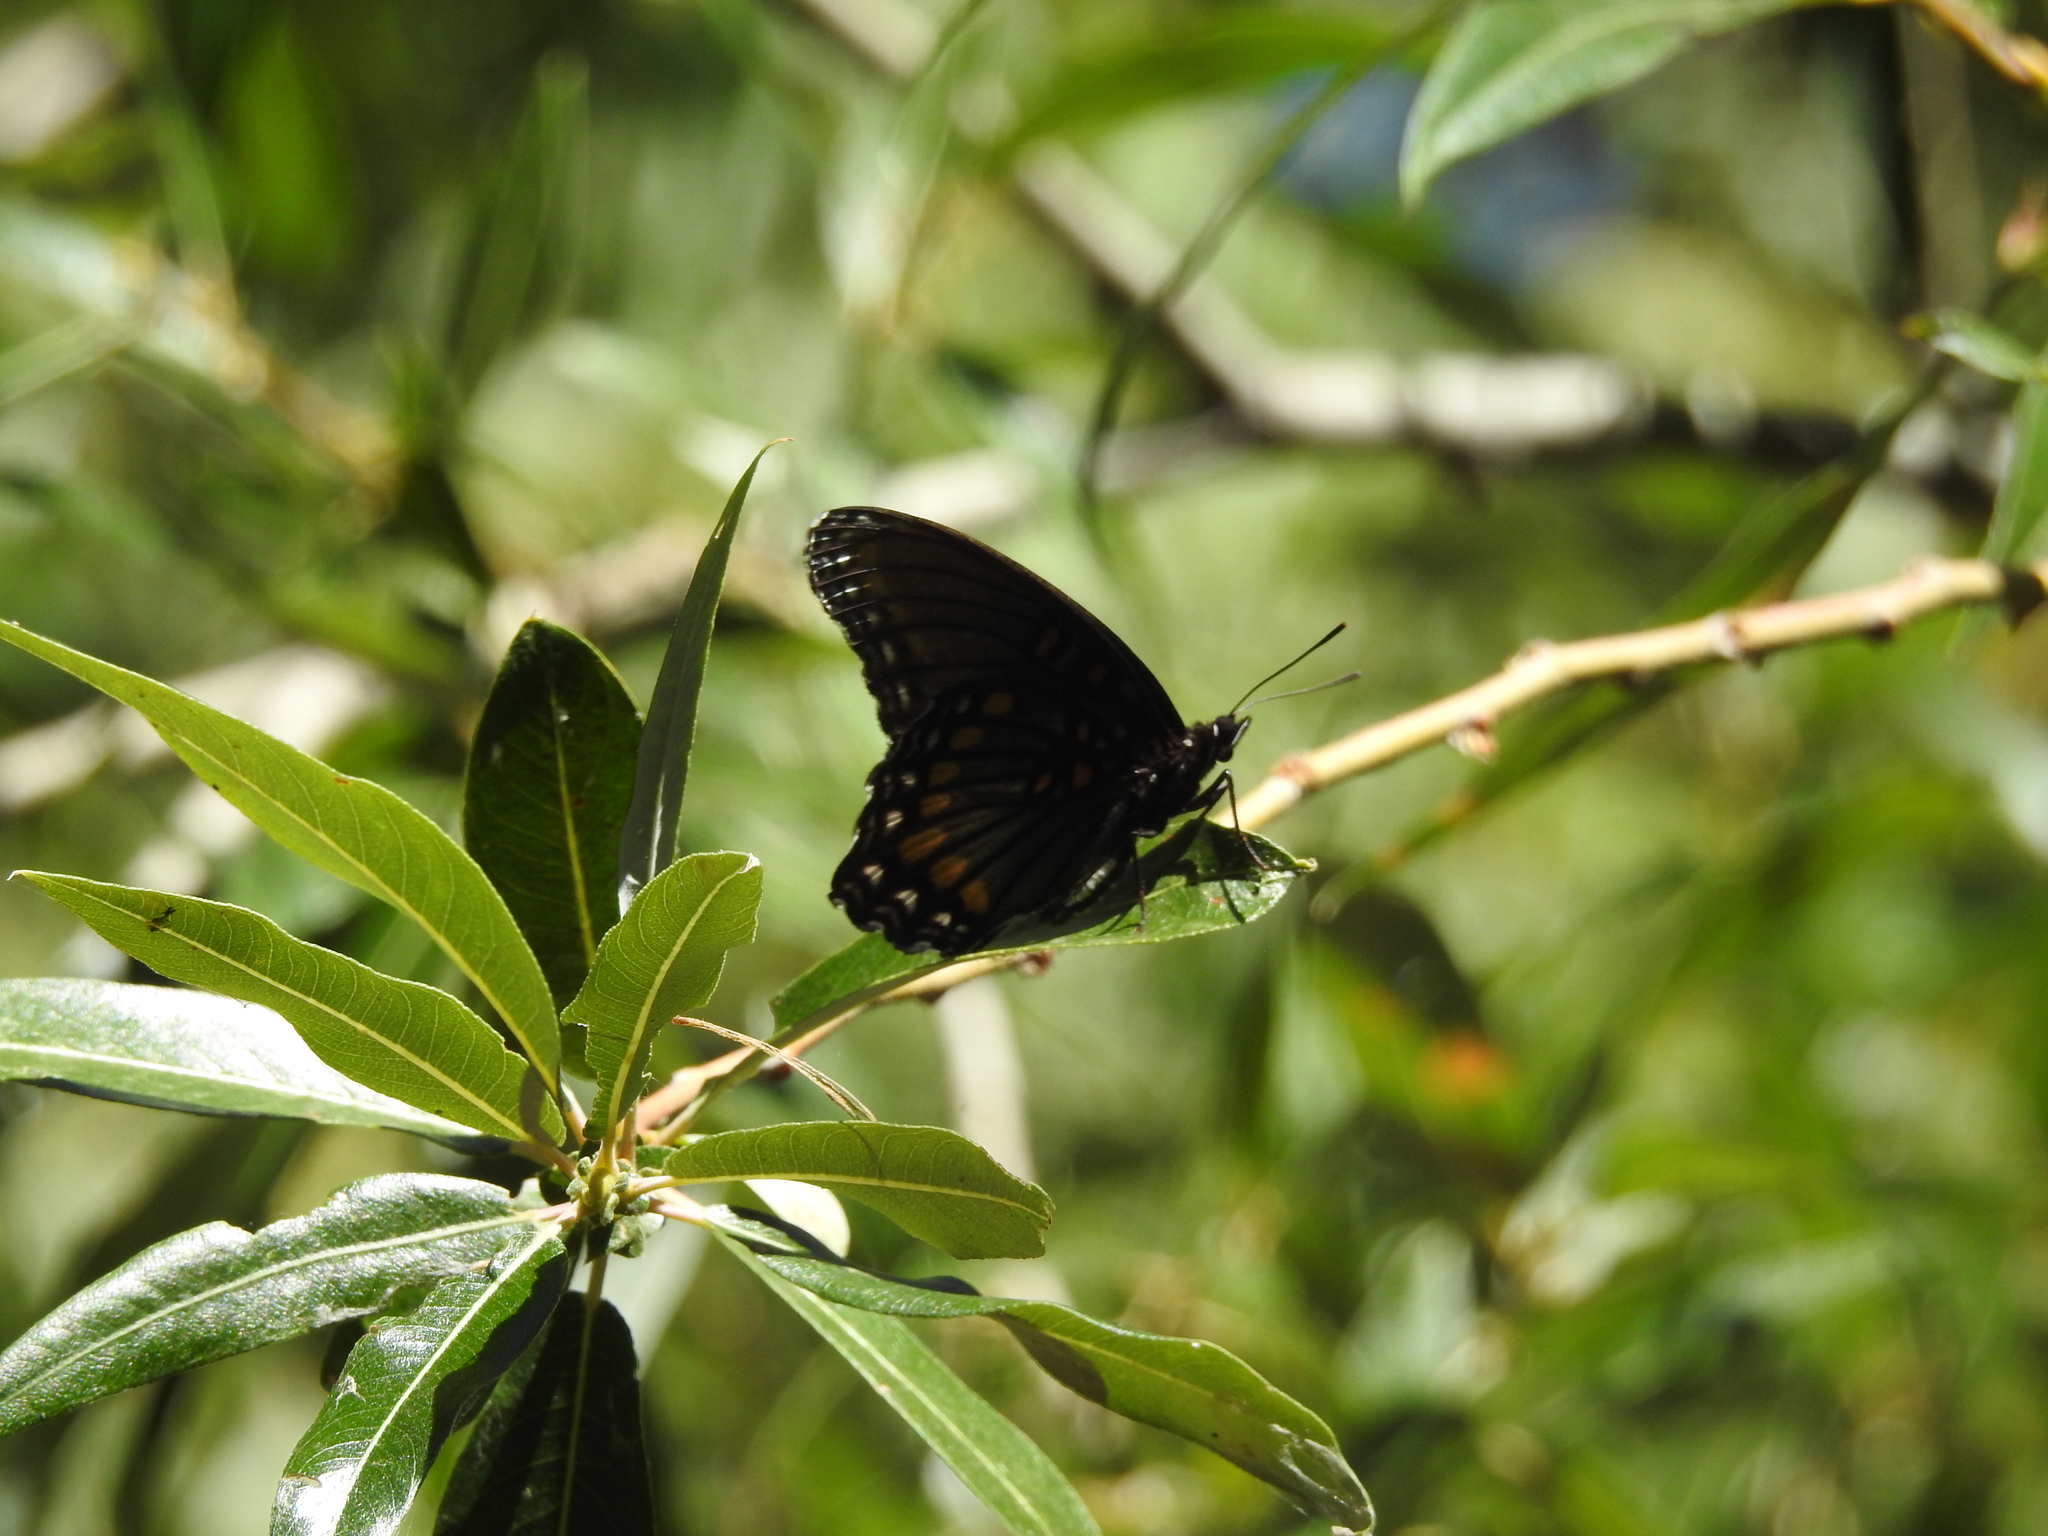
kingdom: Animalia
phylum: Arthropoda
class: Insecta
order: Lepidoptera
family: Nymphalidae
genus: Limenitis
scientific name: Limenitis arthemis
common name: Red-spotted admiral
